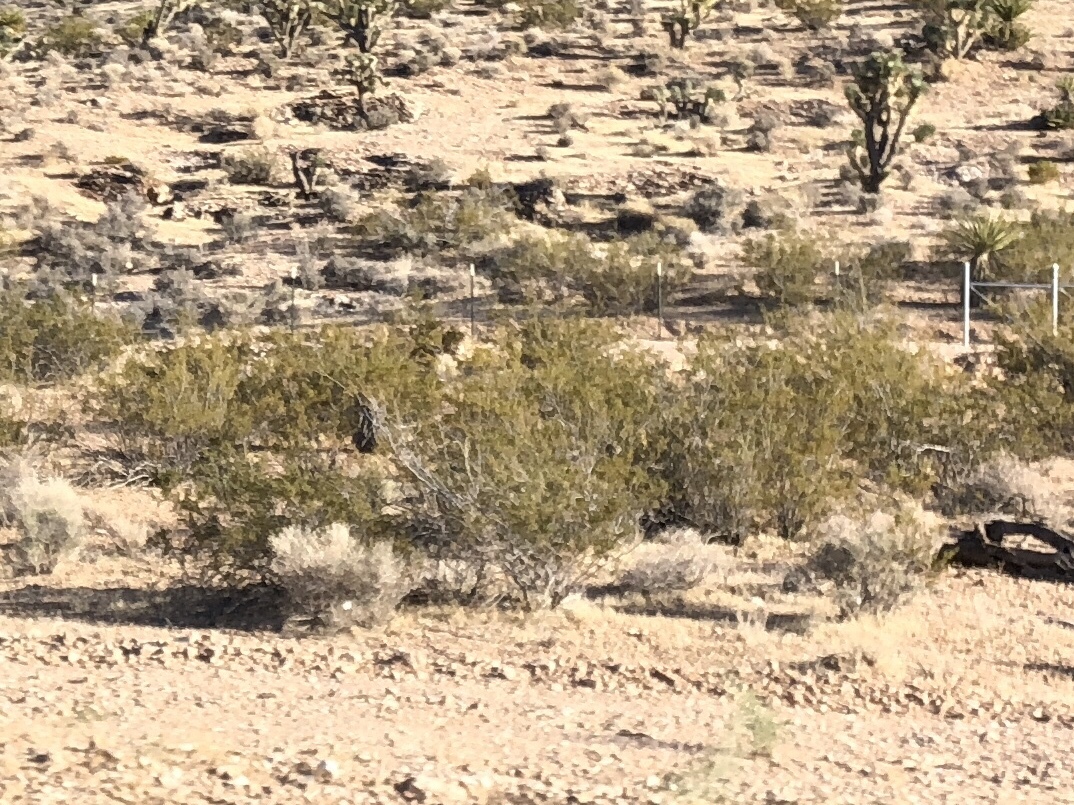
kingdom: Plantae
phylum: Tracheophyta
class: Magnoliopsida
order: Zygophyllales
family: Zygophyllaceae
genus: Larrea
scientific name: Larrea tridentata
